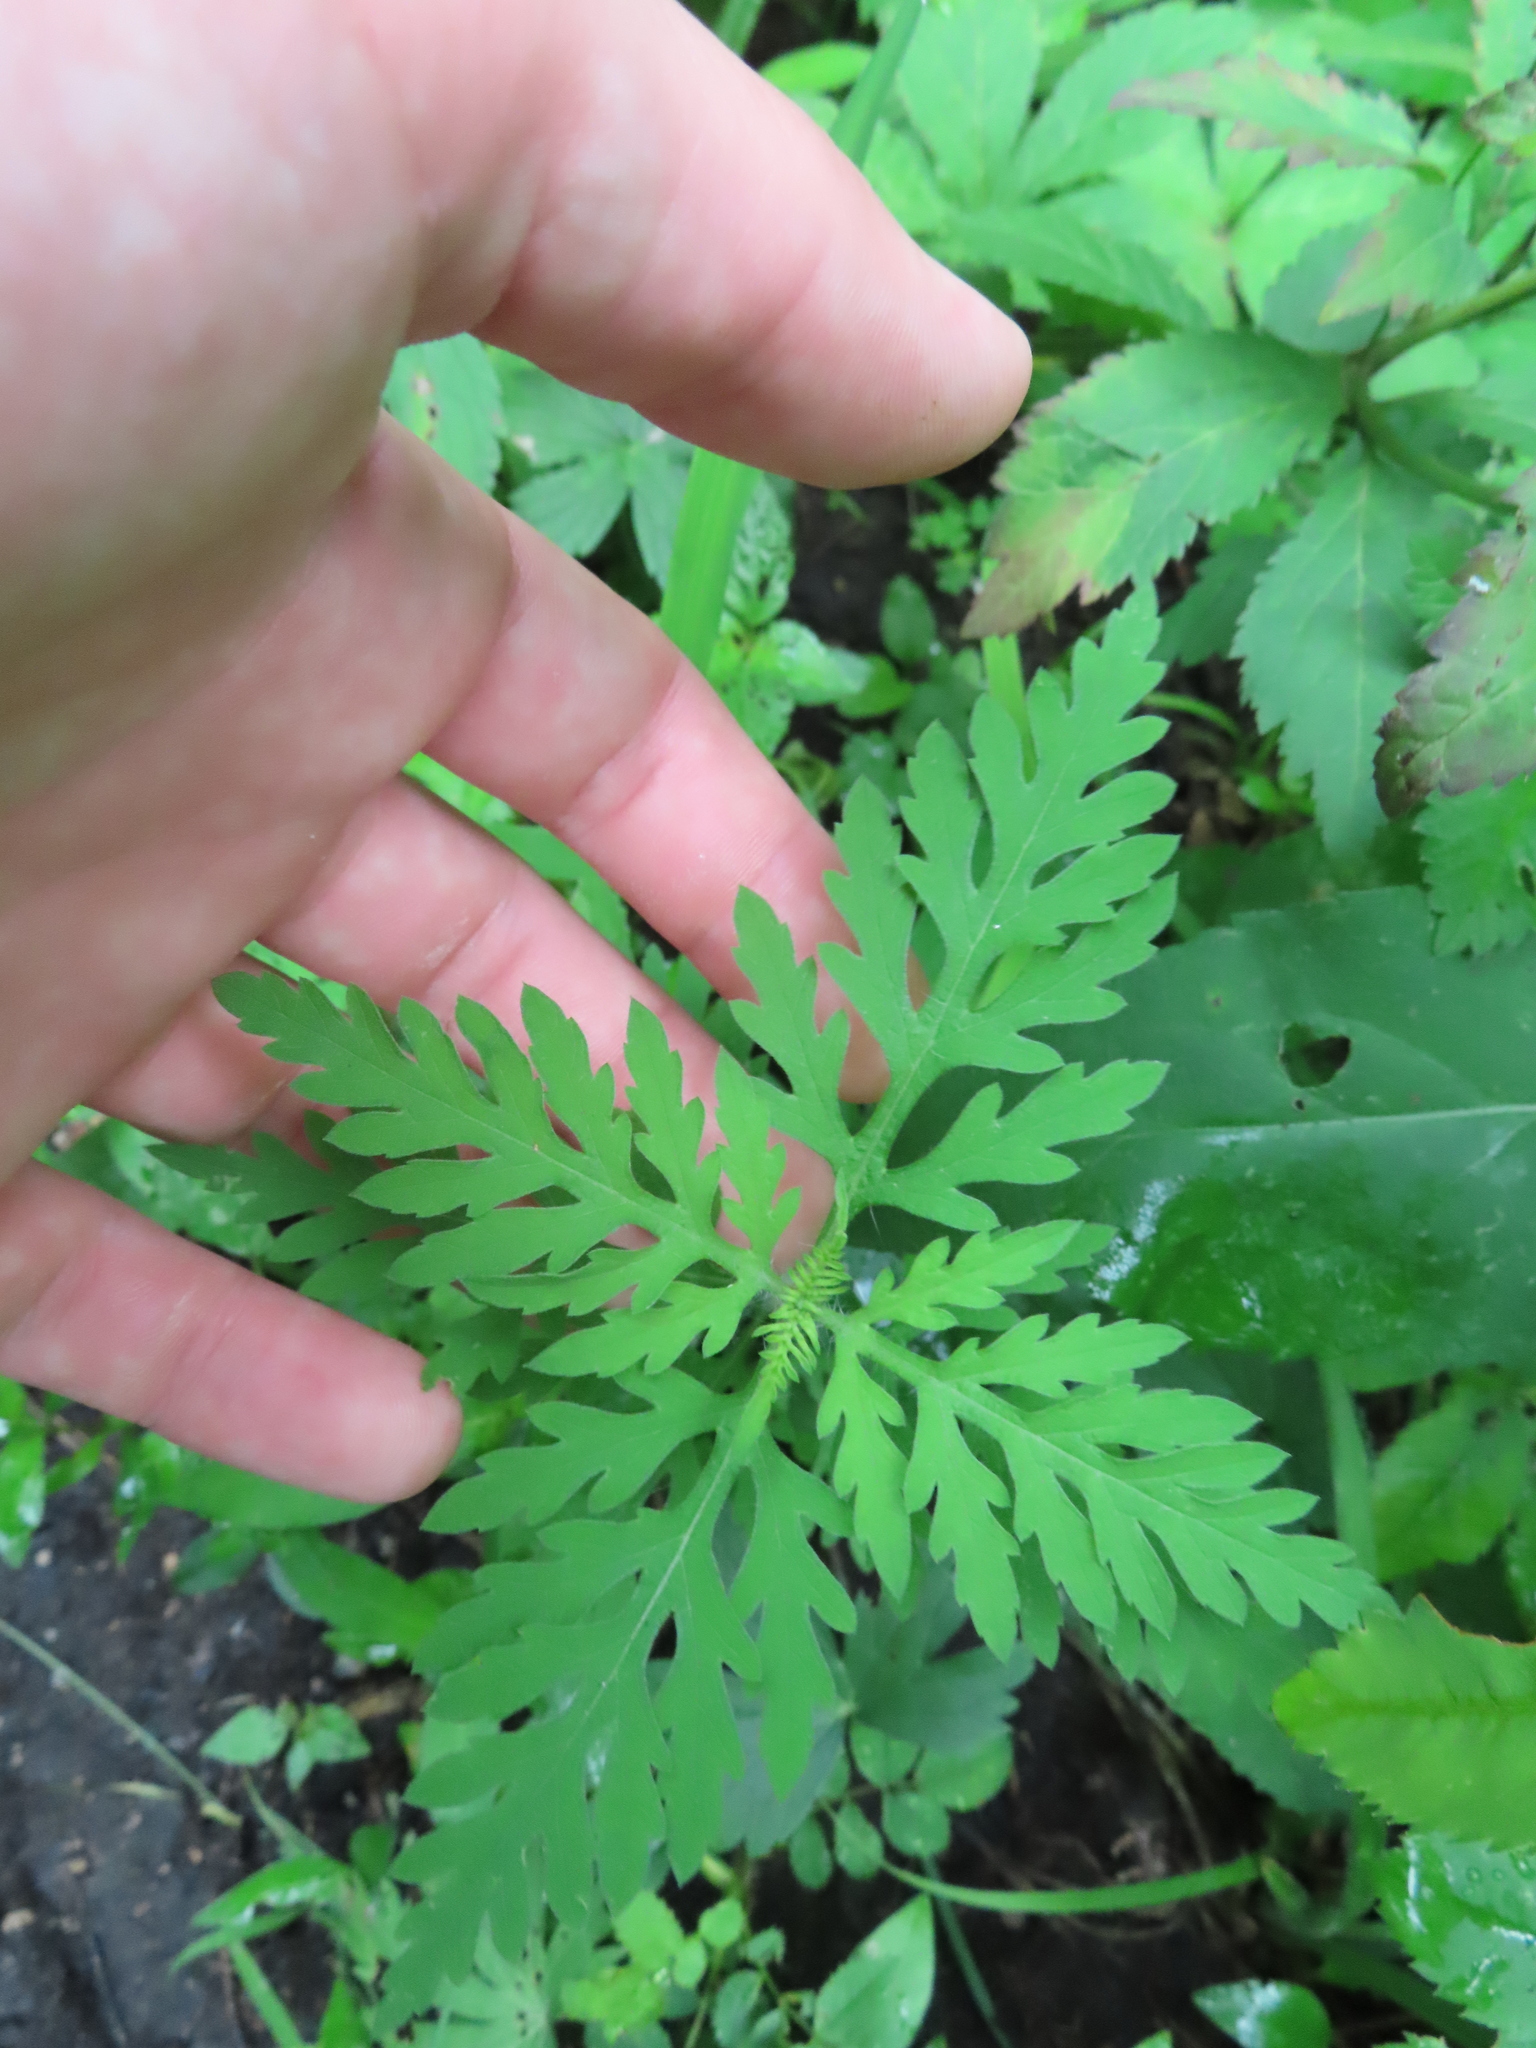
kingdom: Plantae
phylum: Tracheophyta
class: Magnoliopsida
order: Asterales
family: Asteraceae
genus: Ambrosia
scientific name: Ambrosia artemisiifolia
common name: Annual ragweed
